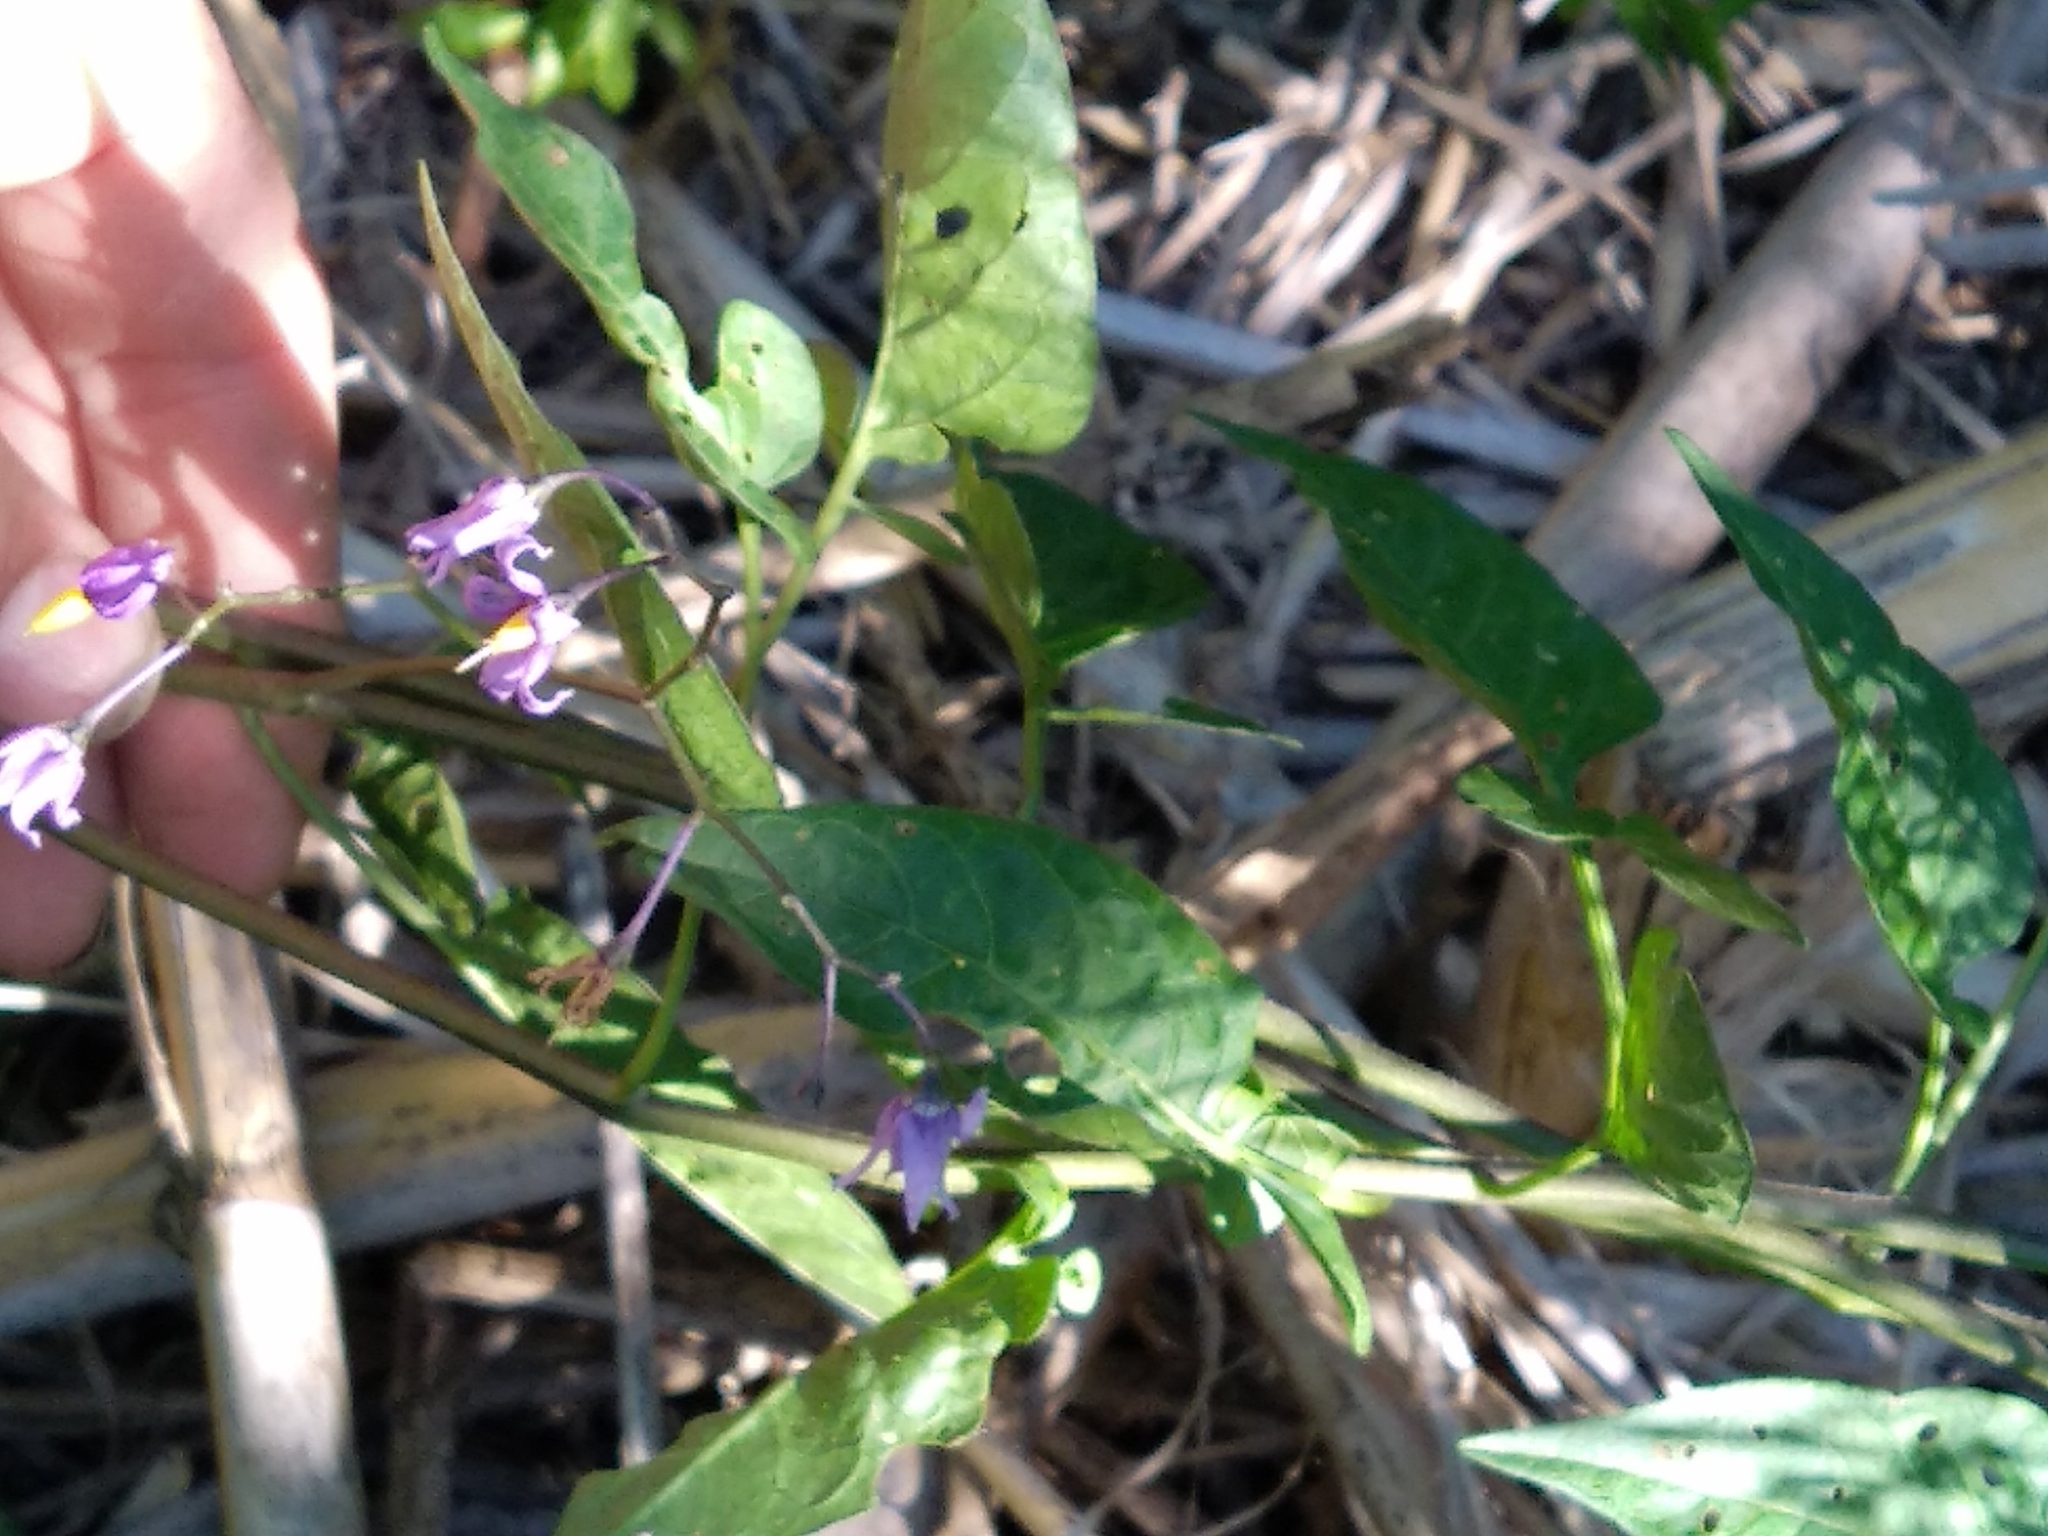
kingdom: Plantae
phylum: Tracheophyta
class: Magnoliopsida
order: Solanales
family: Solanaceae
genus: Solanum
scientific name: Solanum dulcamara
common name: Climbing nightshade
